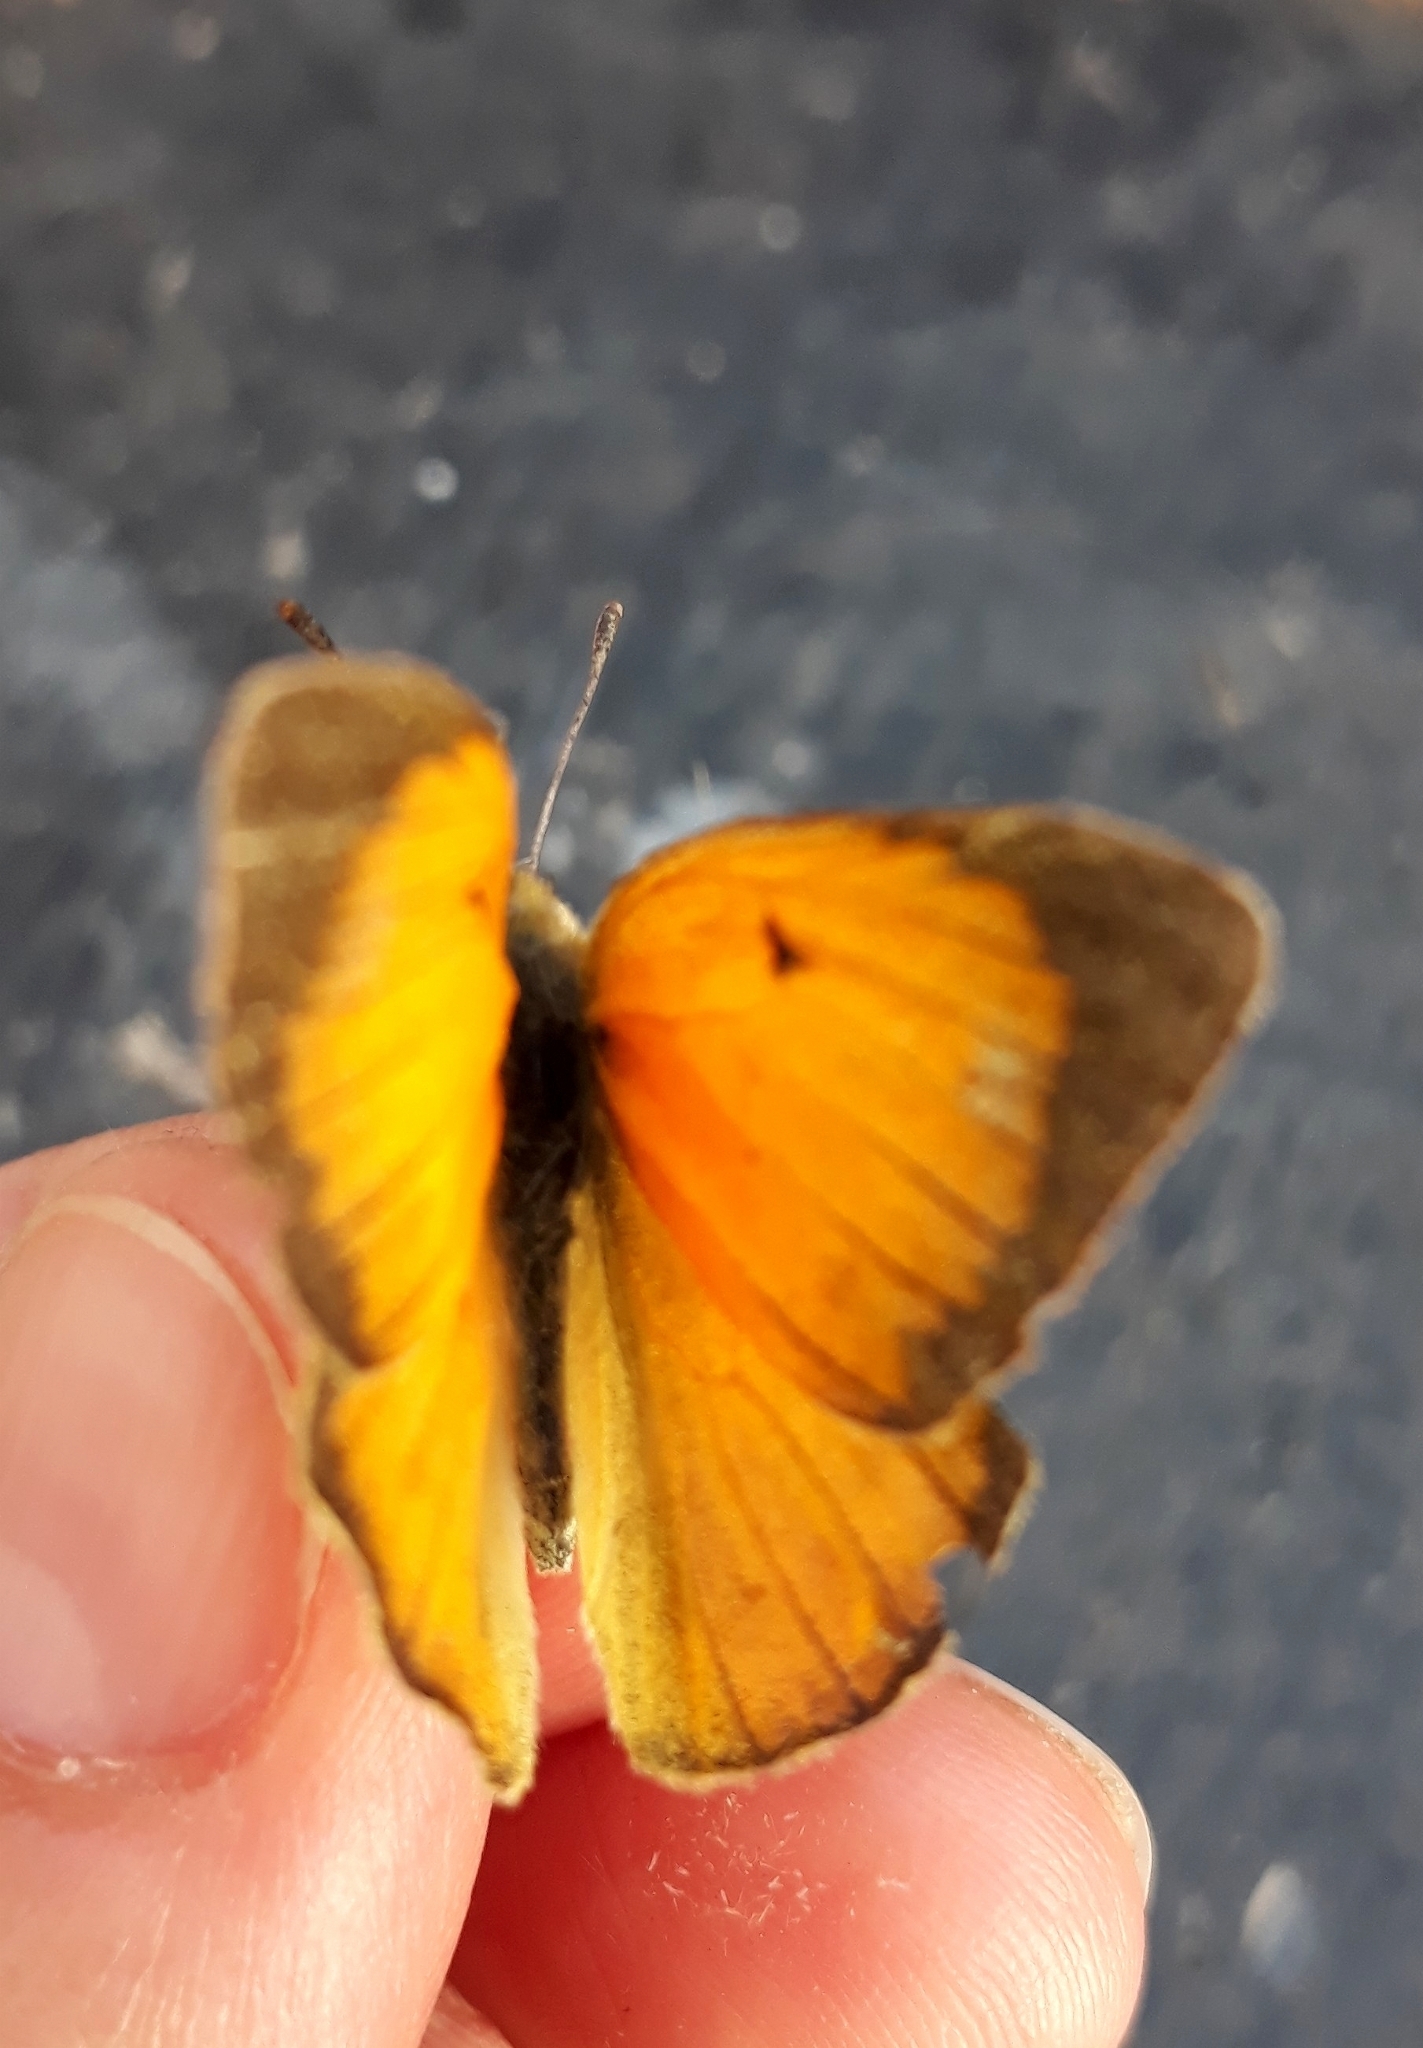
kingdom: Animalia
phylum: Arthropoda
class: Insecta
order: Lepidoptera
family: Pieridae
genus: Colias
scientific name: Colias lesbia
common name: Lesbia clouded yellow
